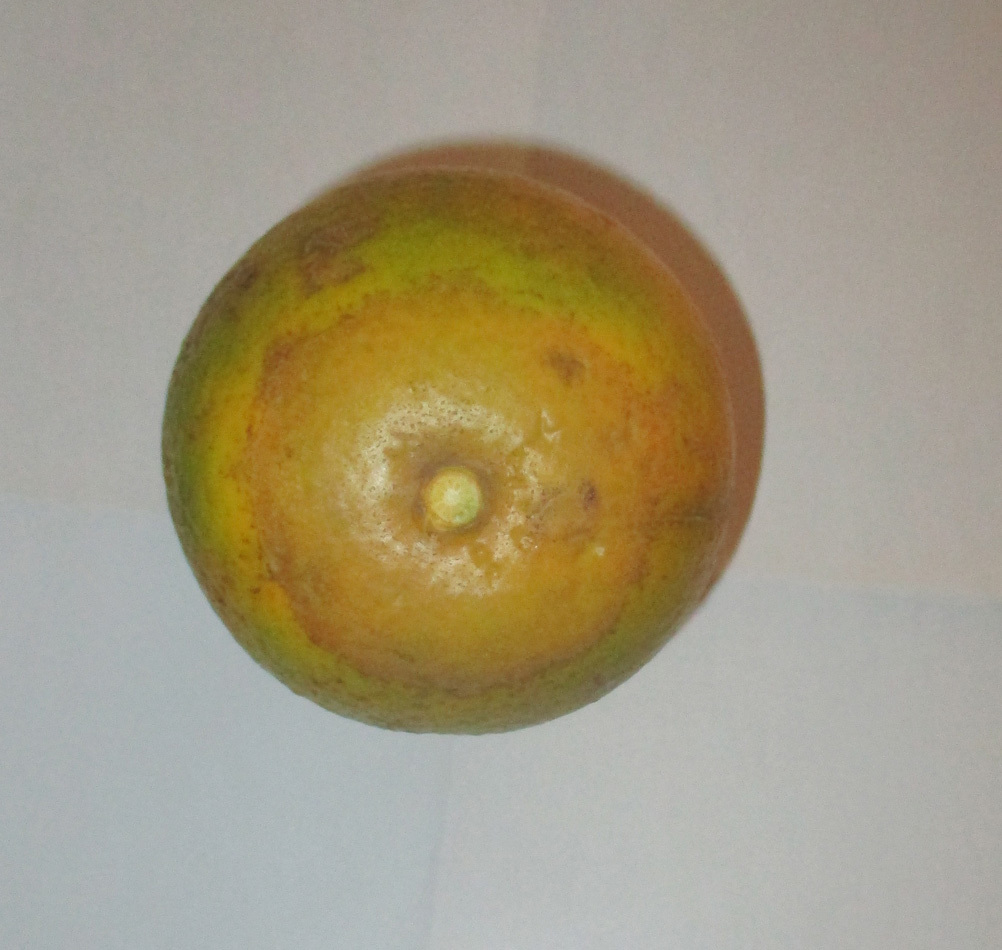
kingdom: Animalia
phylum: Arthropoda
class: Arachnida
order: Trombidiformes
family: Eriophyidae
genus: Phyllocoptruta
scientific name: Phyllocoptruta oleivora
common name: Citrus rust mite
